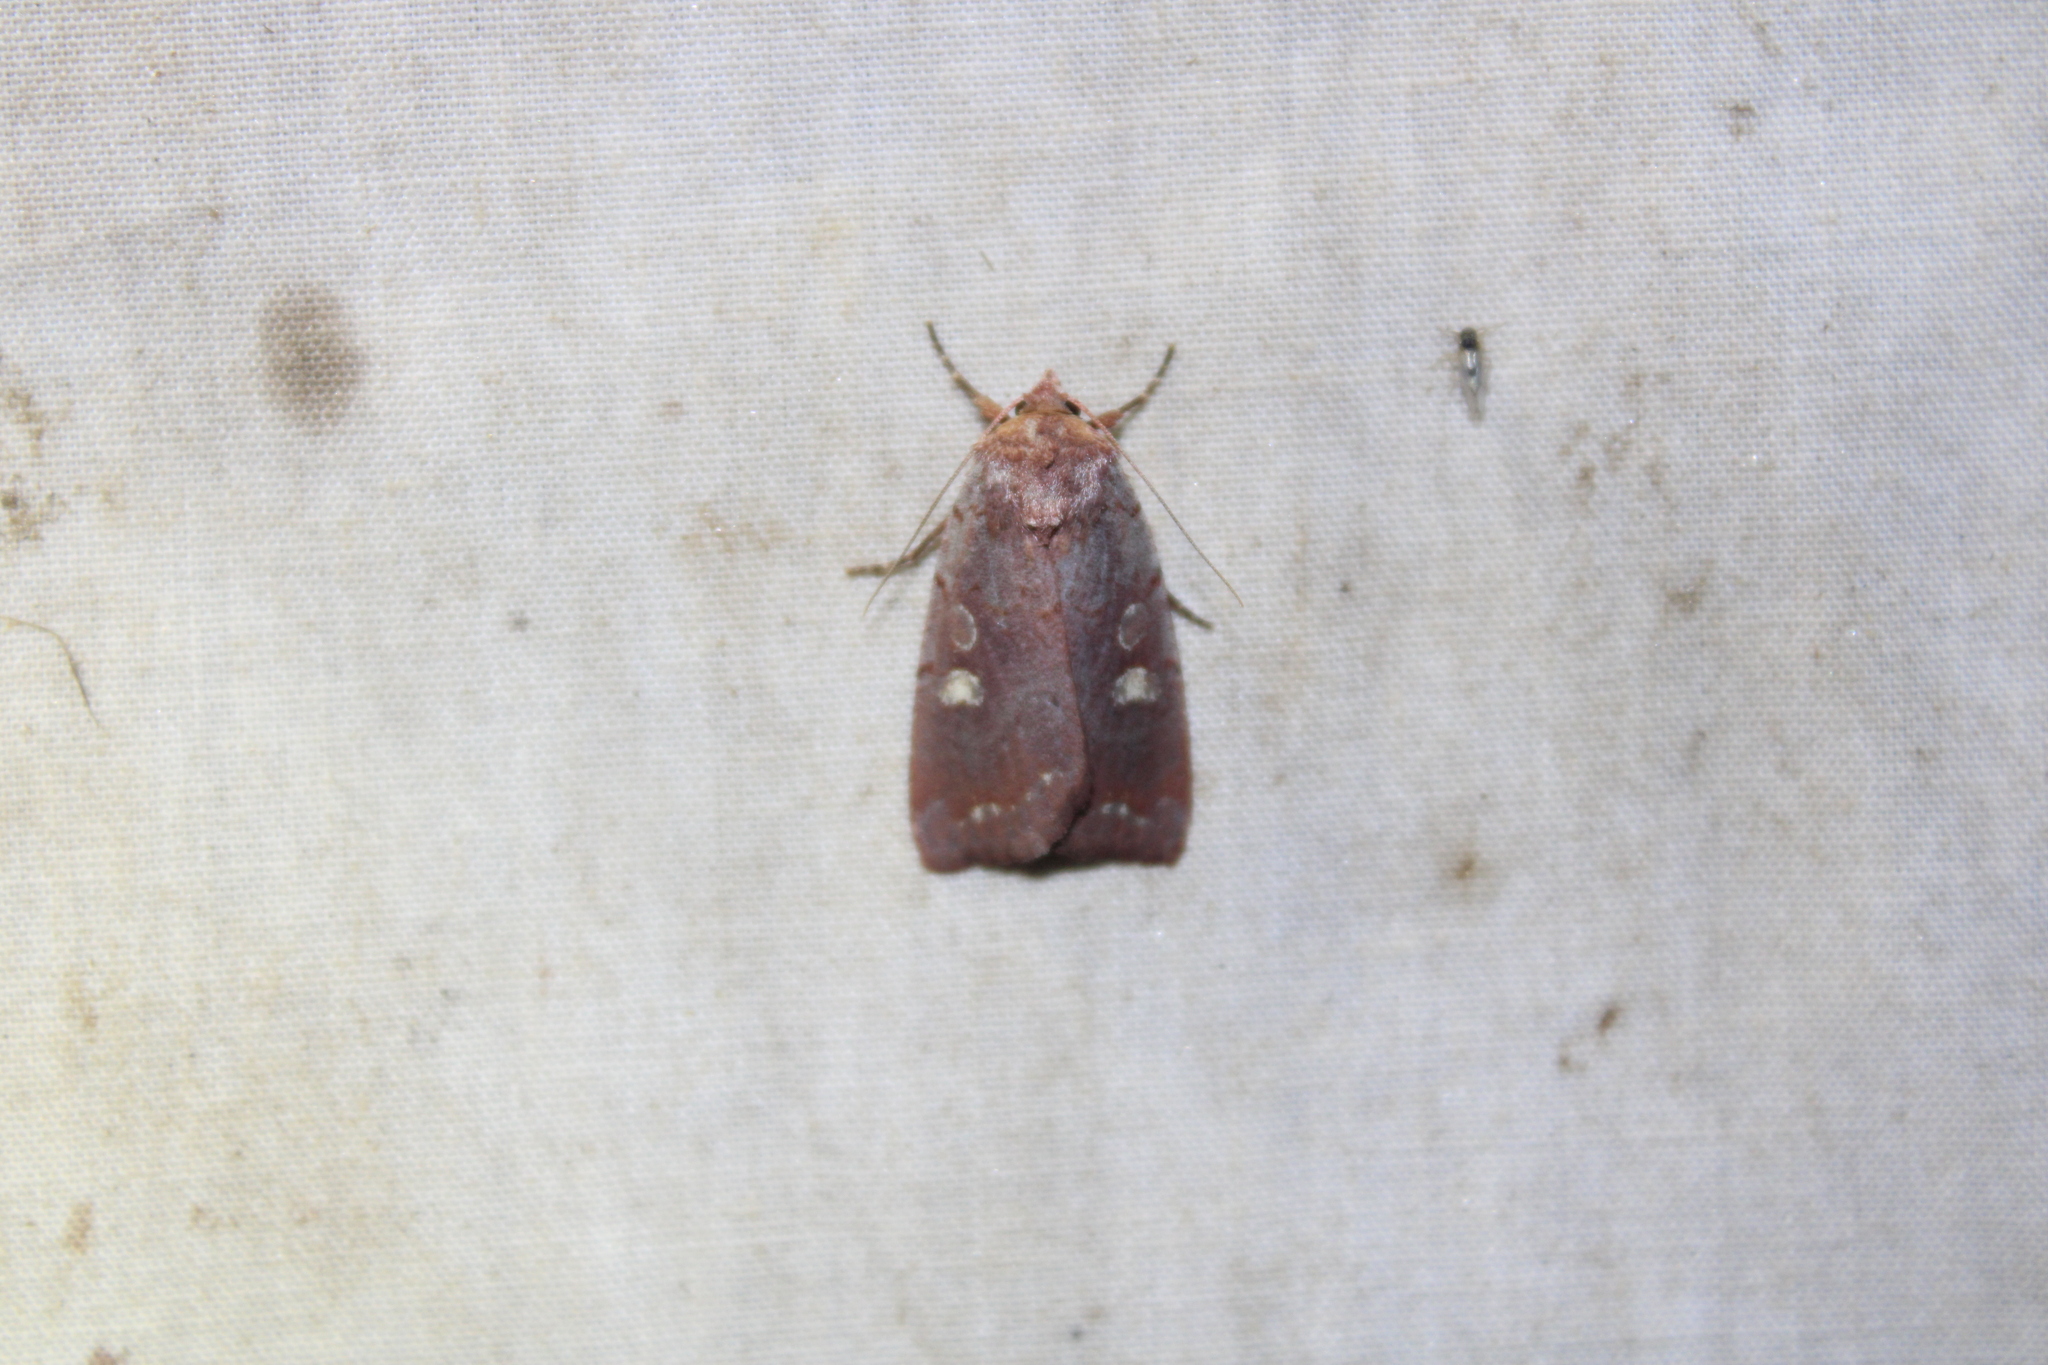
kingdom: Animalia
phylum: Arthropoda
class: Insecta
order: Lepidoptera
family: Noctuidae
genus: Xestia
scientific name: Xestia dilucida
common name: Dull reddish dart
